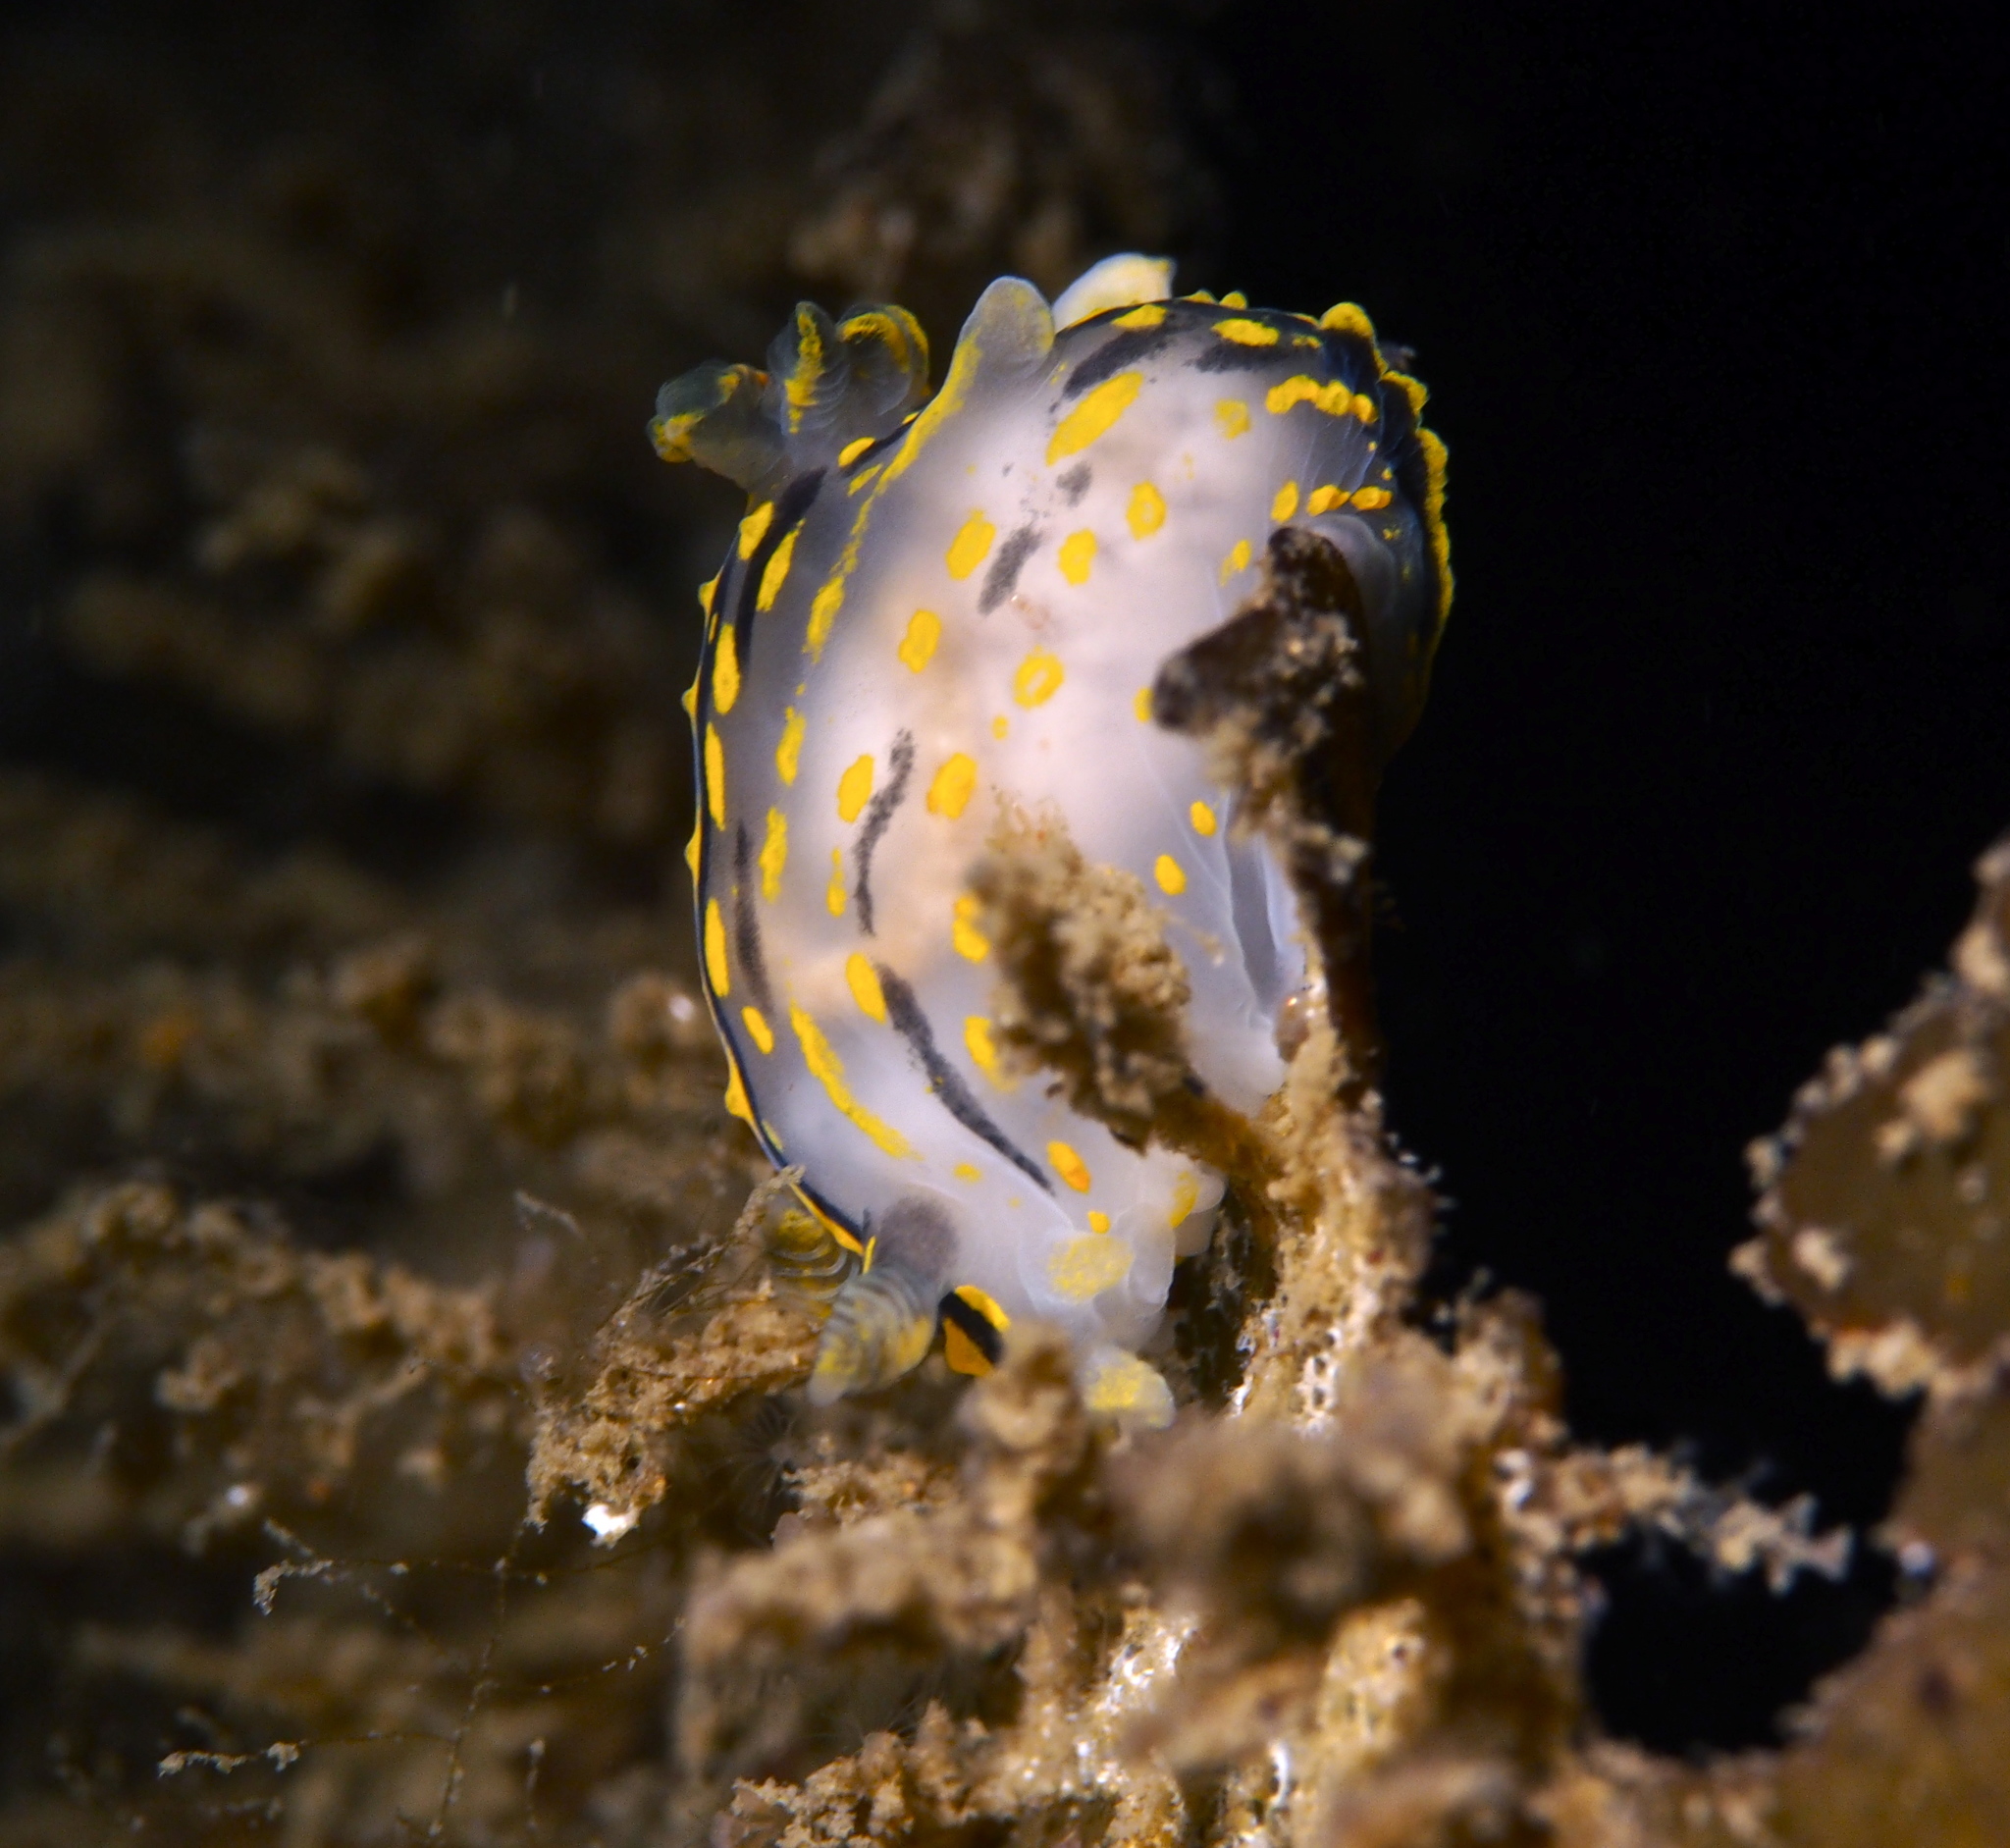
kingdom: Animalia
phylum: Mollusca
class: Gastropoda
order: Nudibranchia
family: Polyceridae
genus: Polycera
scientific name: Polycera quadrilineata
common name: Four-striped polycera
